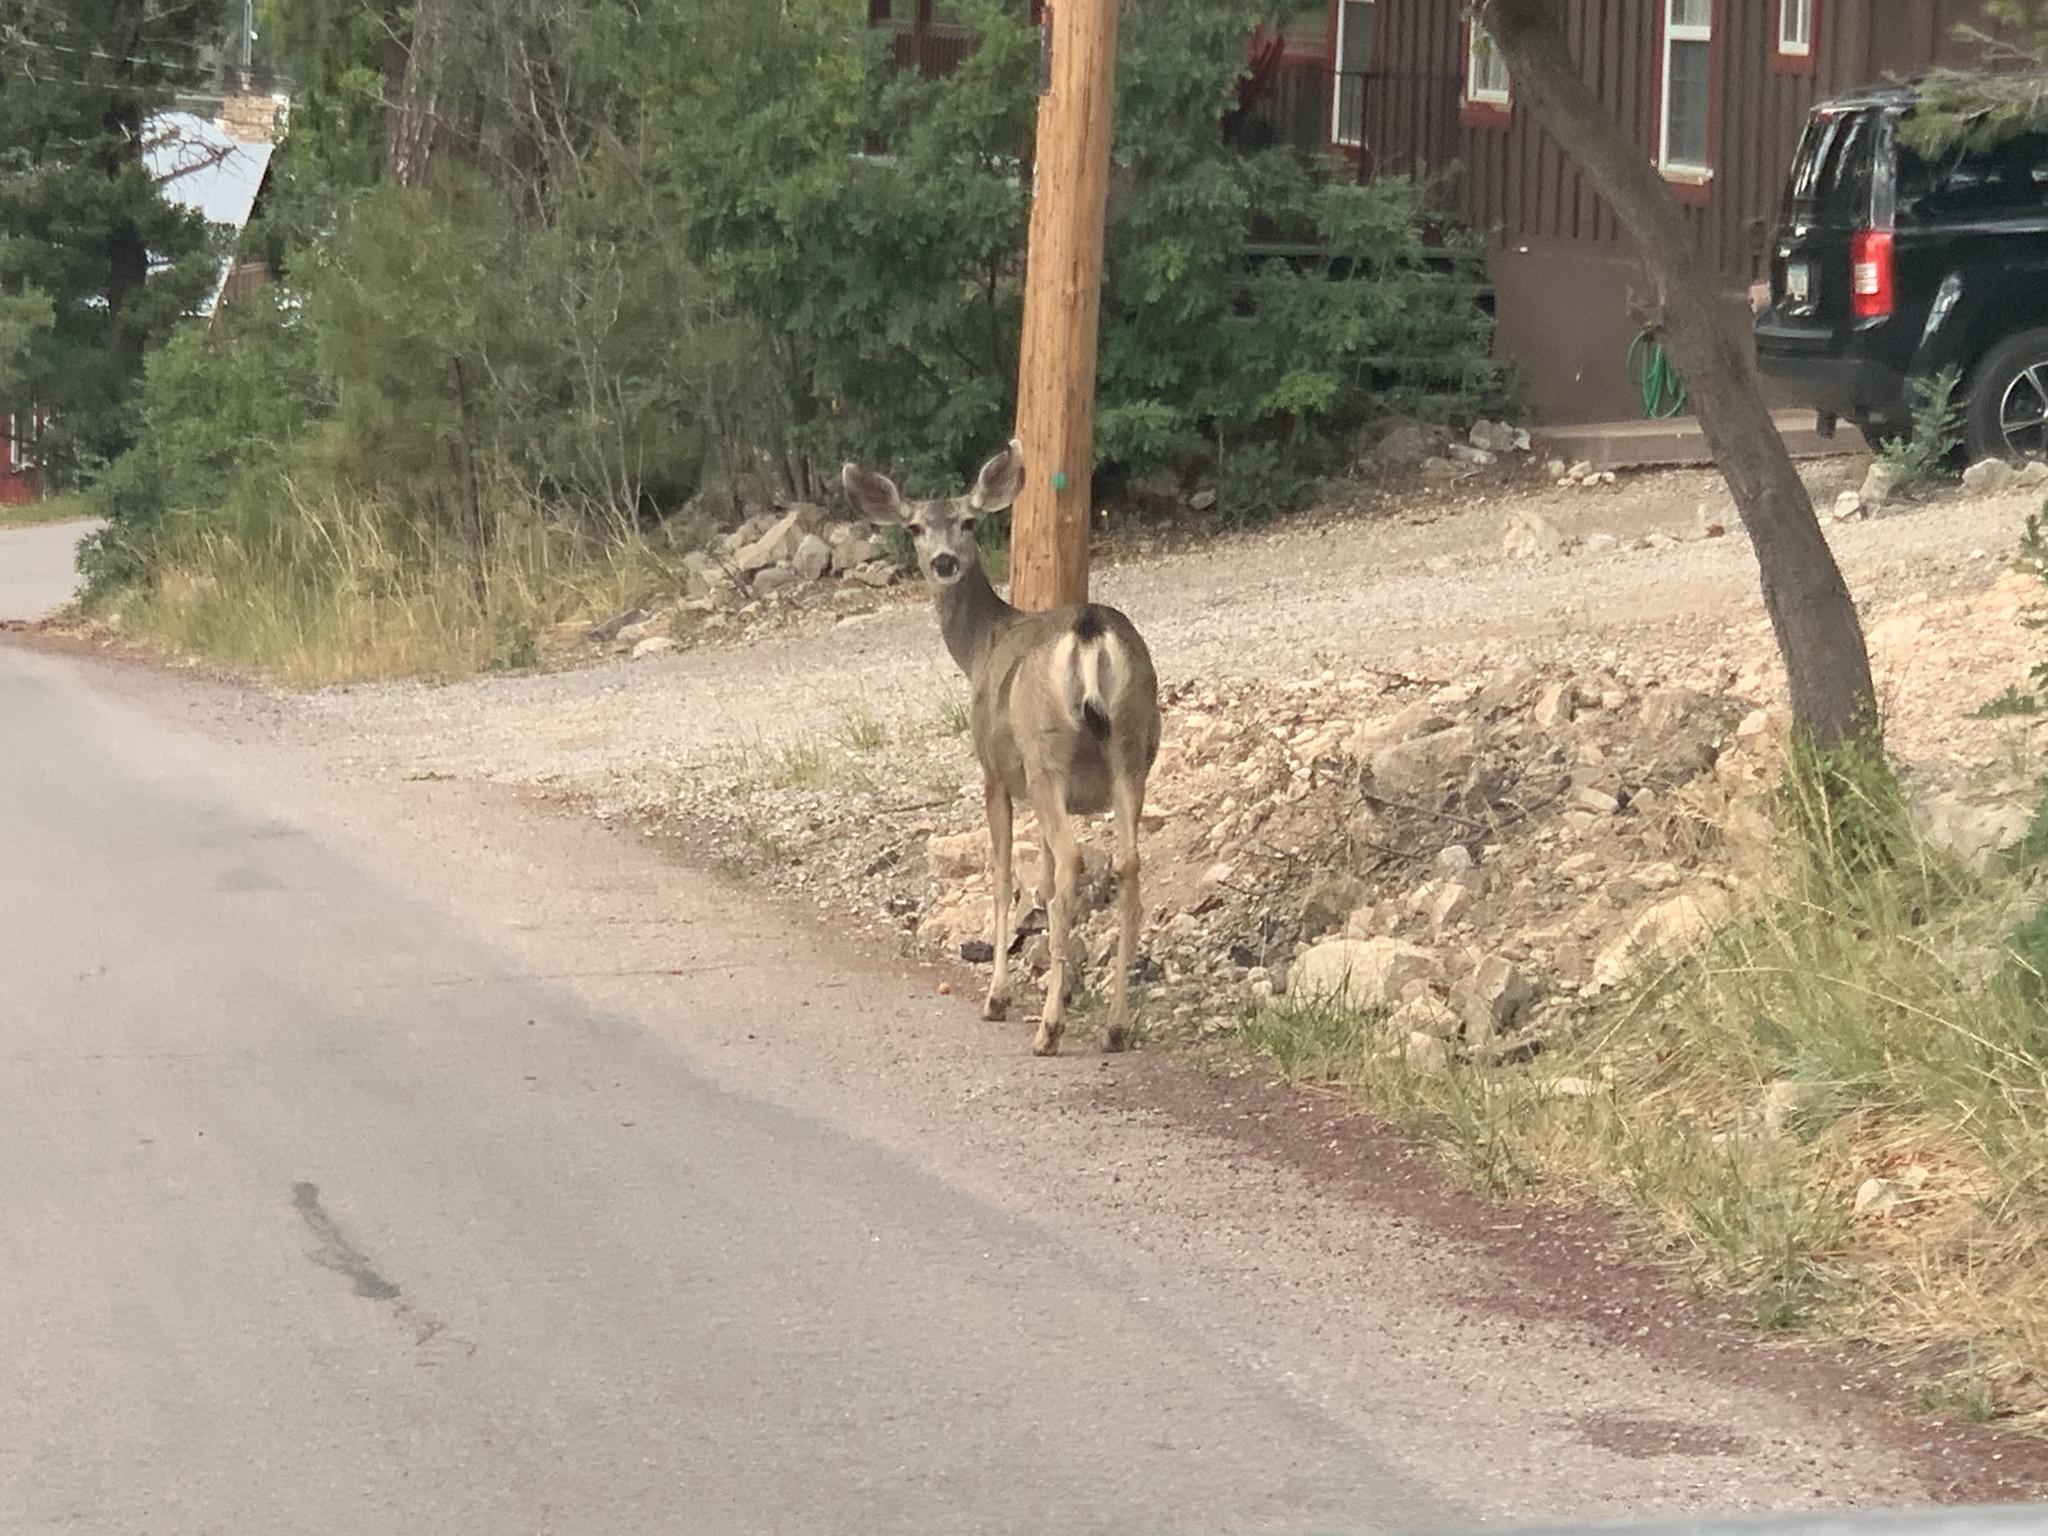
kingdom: Animalia
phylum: Chordata
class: Mammalia
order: Artiodactyla
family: Cervidae
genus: Odocoileus
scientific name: Odocoileus hemionus
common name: Mule deer
